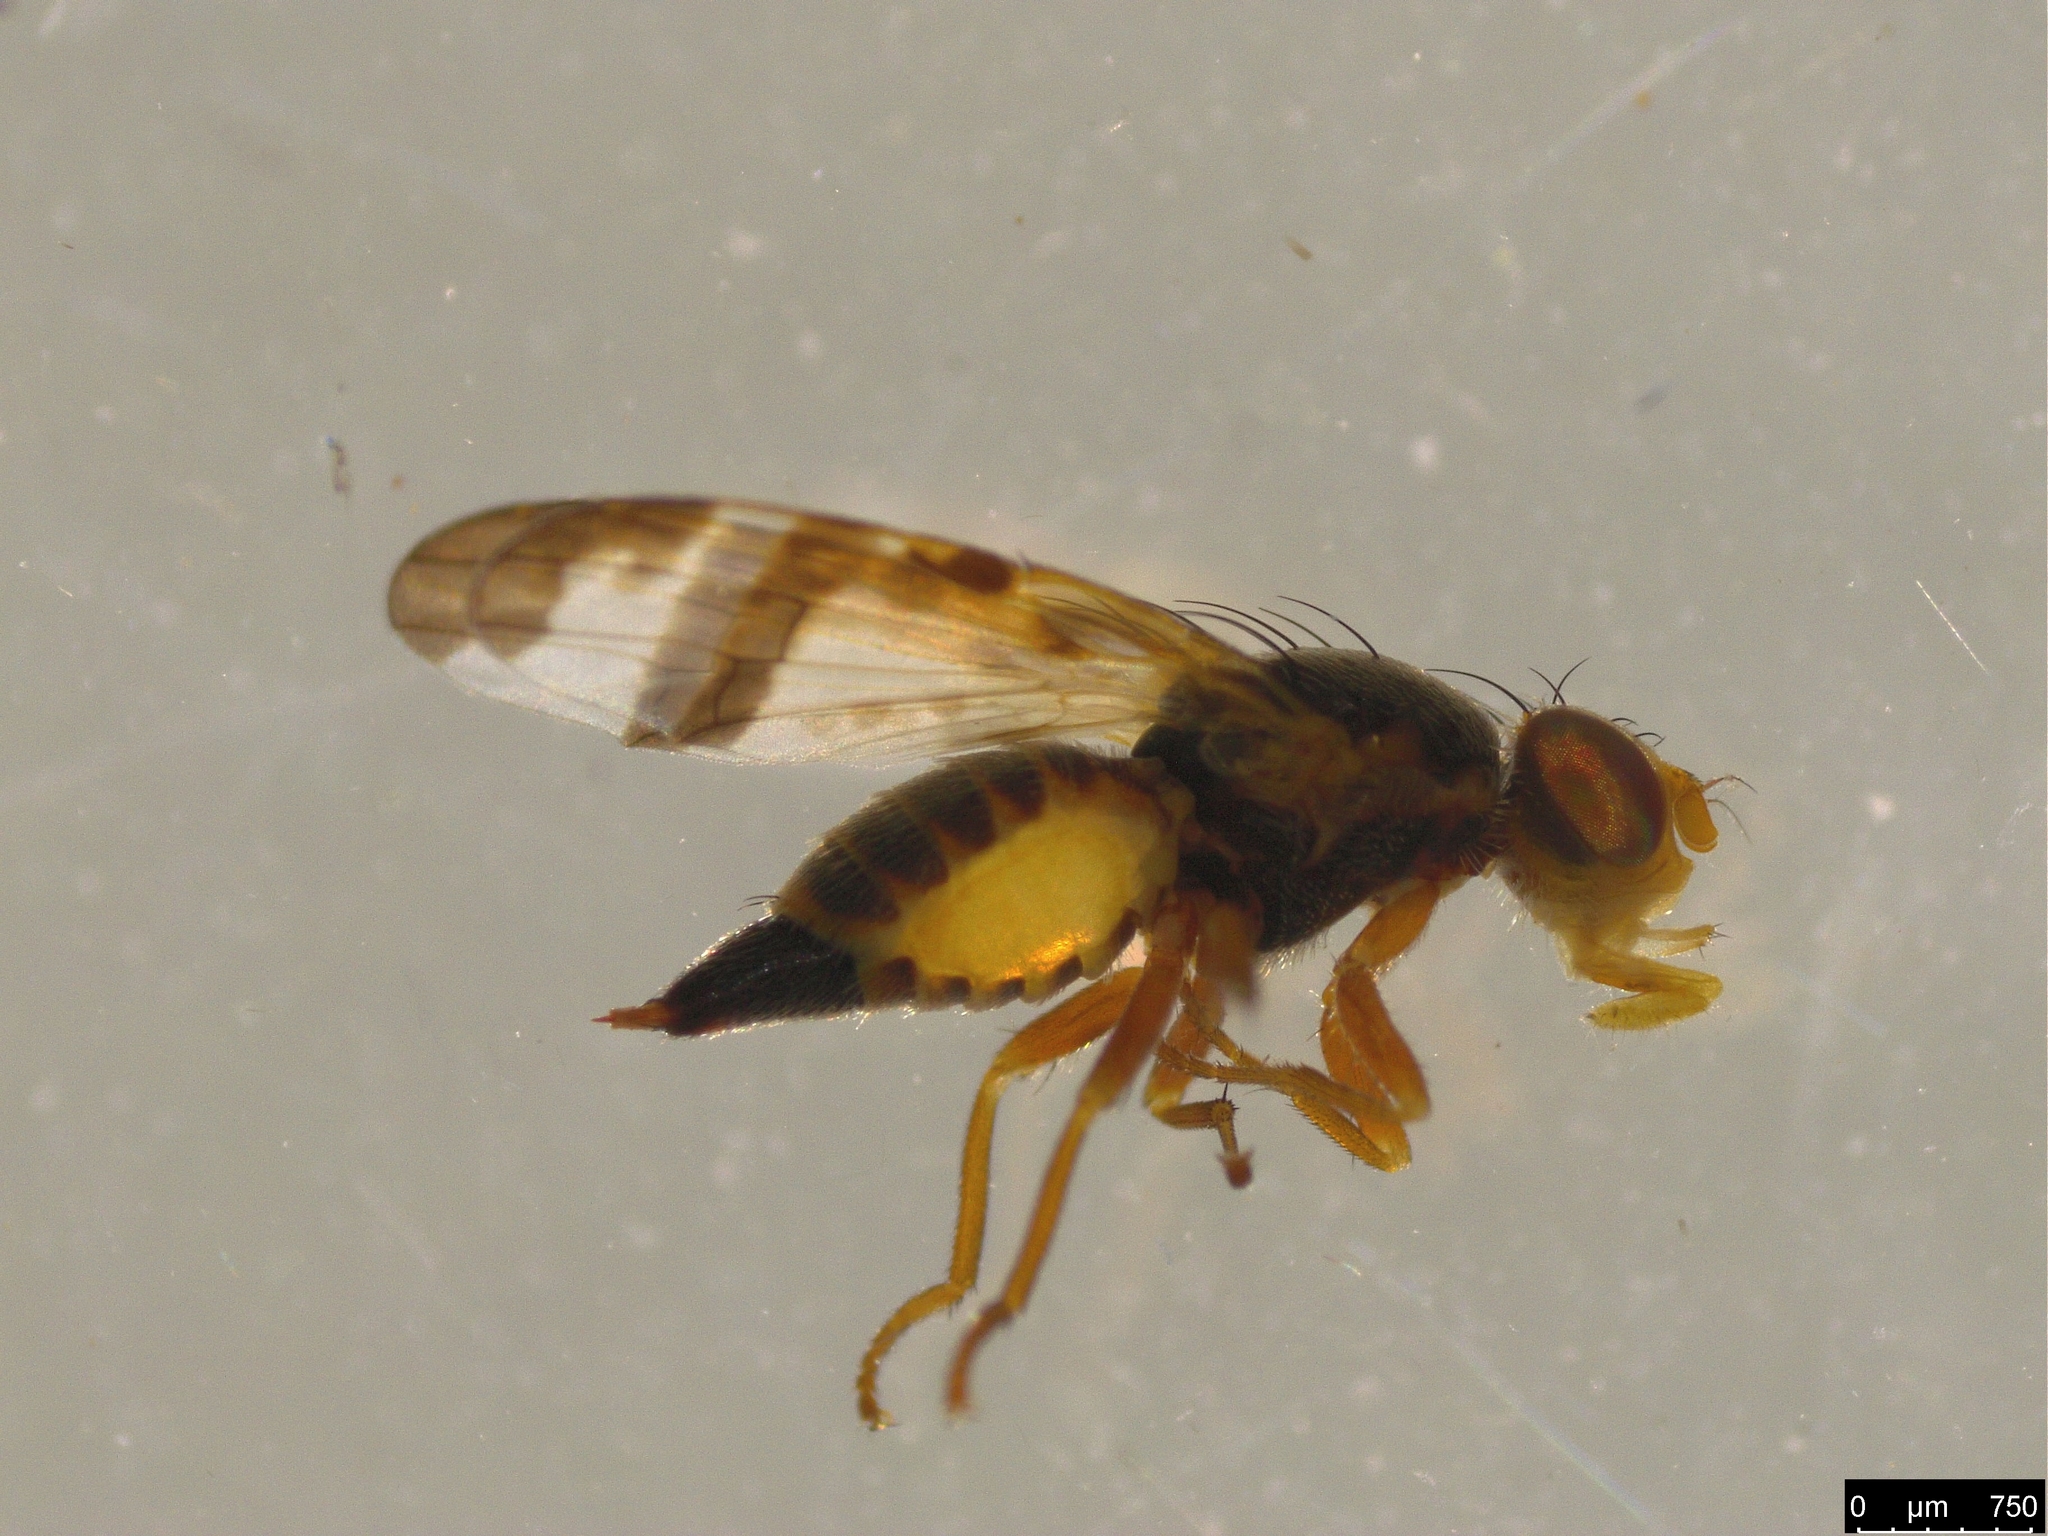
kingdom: Animalia
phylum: Arthropoda
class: Insecta
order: Diptera
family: Tephritidae
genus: Sphenella
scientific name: Sphenella ruficeps
